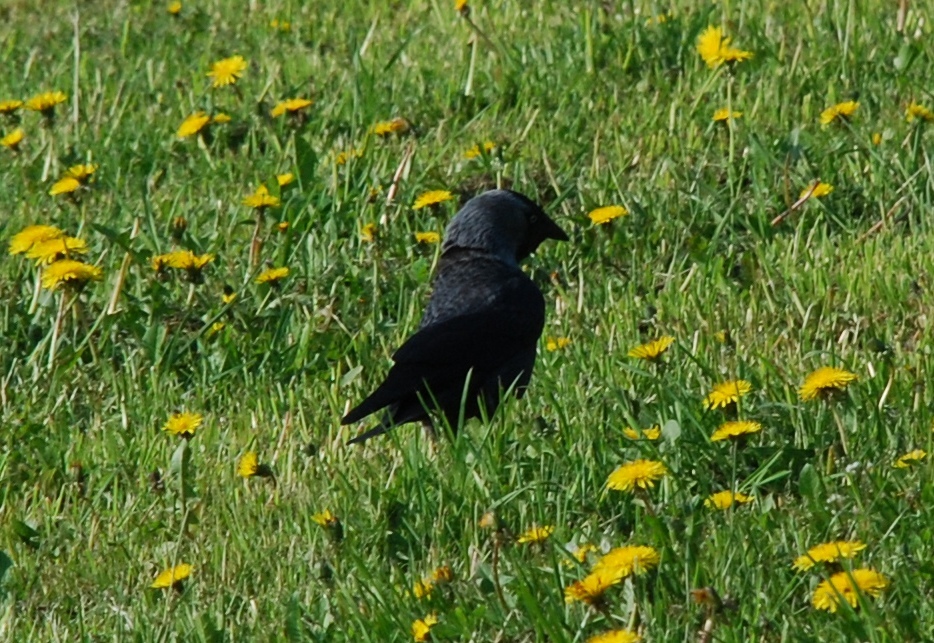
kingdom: Animalia
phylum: Chordata
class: Aves
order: Passeriformes
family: Corvidae
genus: Coloeus
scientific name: Coloeus monedula
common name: Western jackdaw
